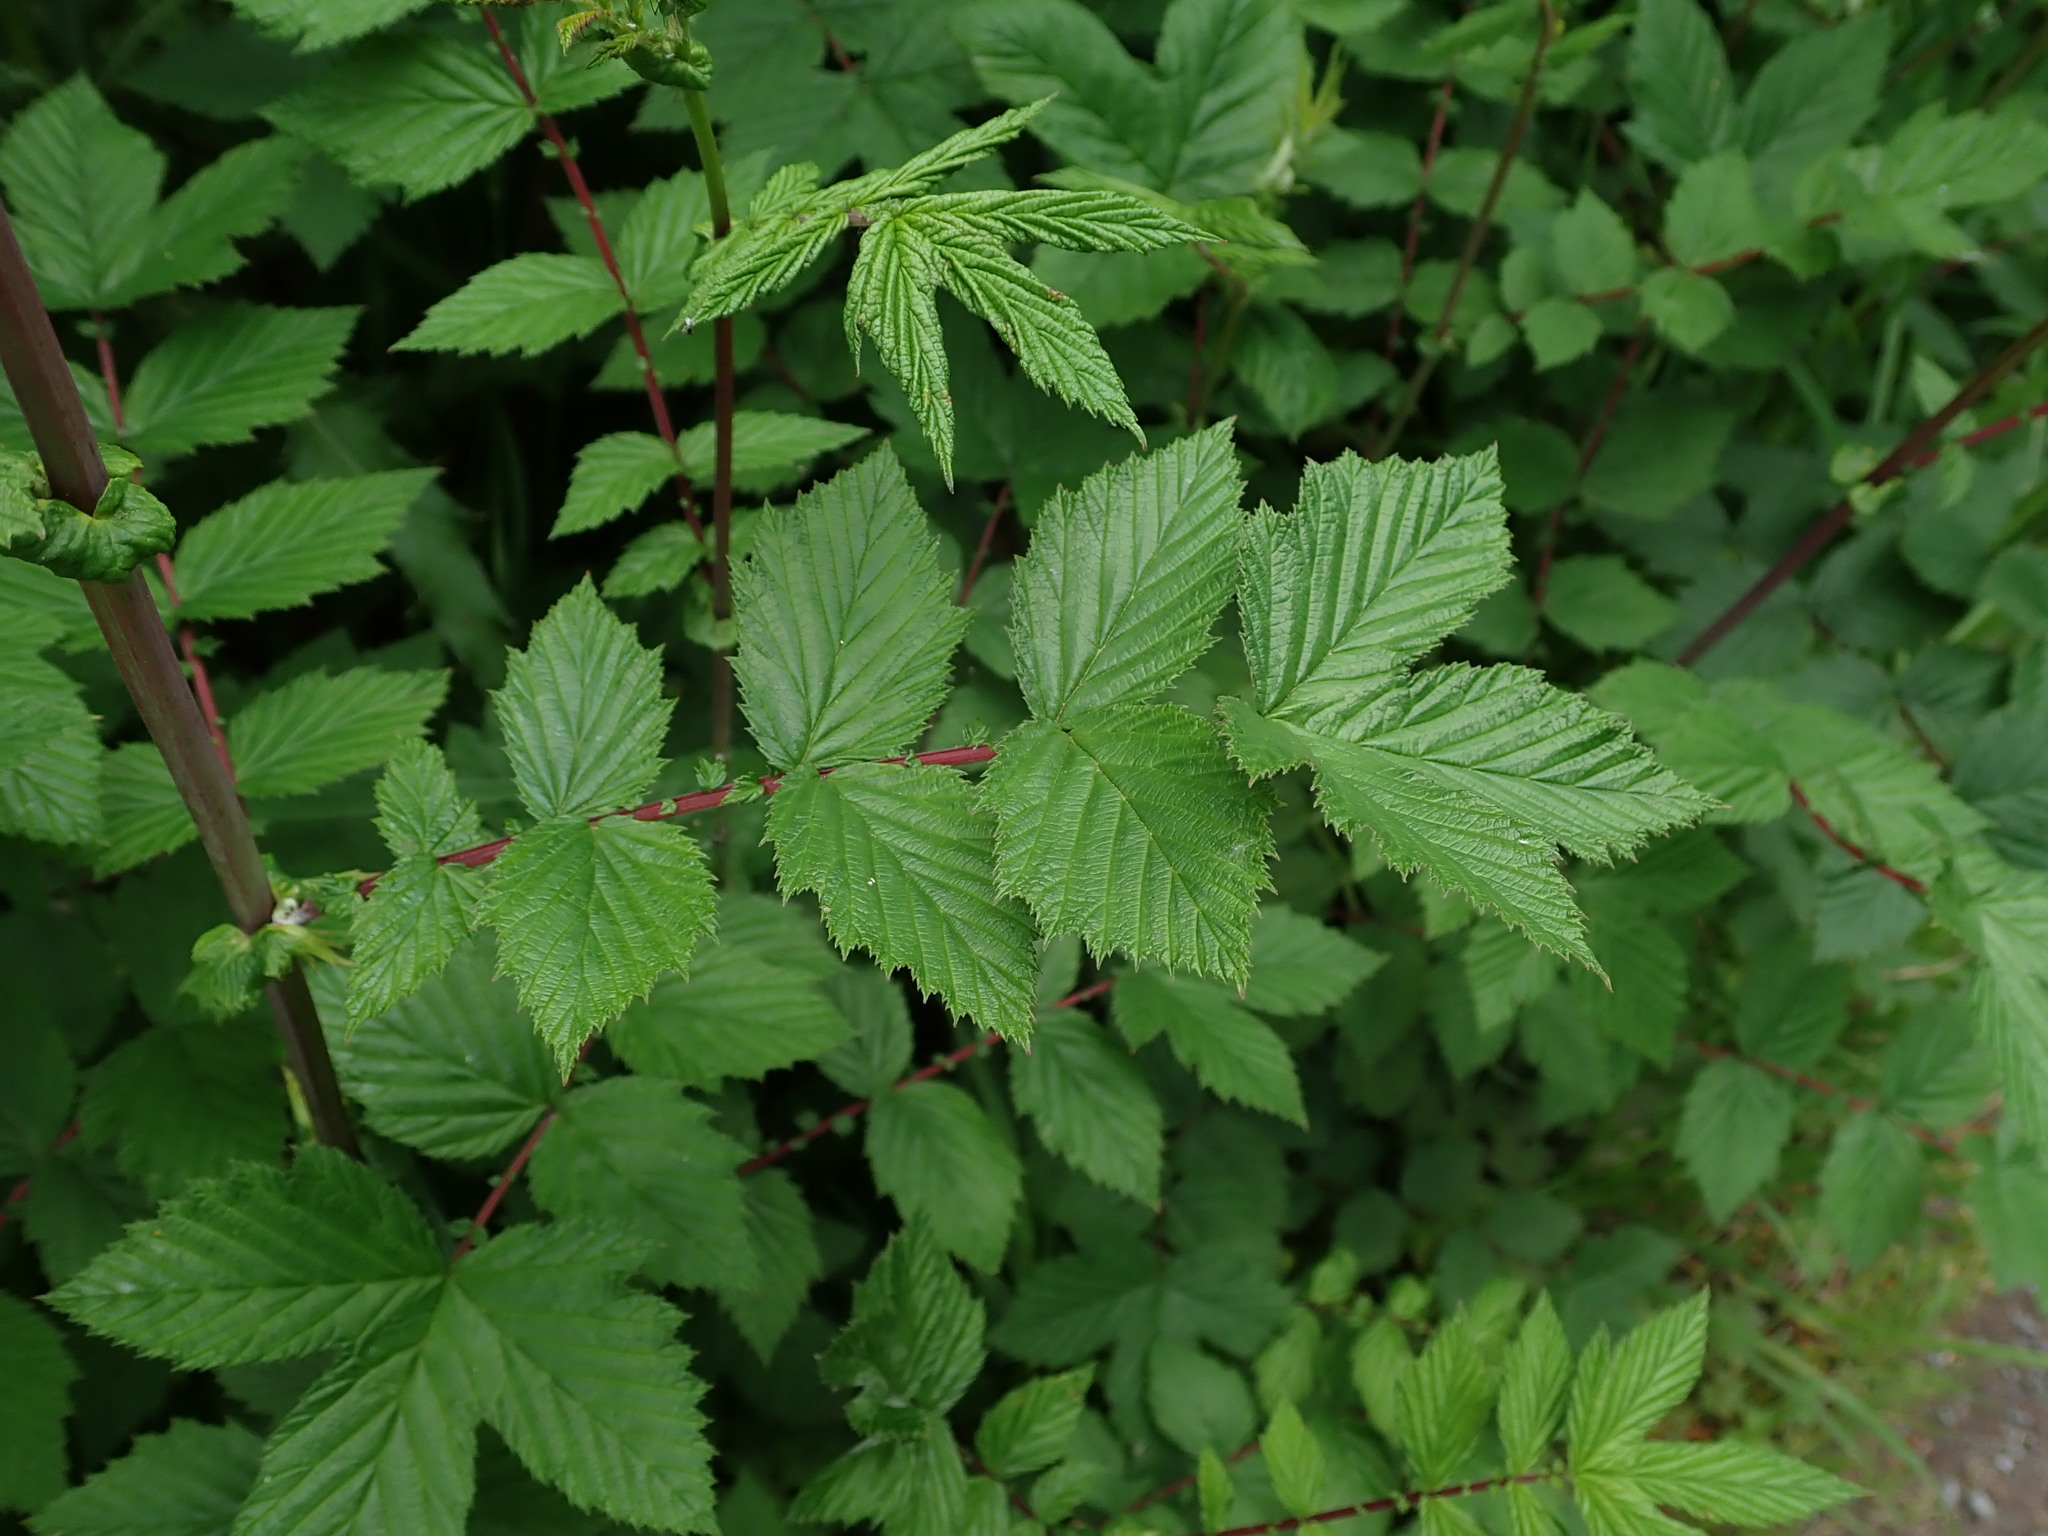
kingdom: Plantae
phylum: Tracheophyta
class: Magnoliopsida
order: Rosales
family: Rosaceae
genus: Filipendula
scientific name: Filipendula ulmaria
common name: Meadowsweet
